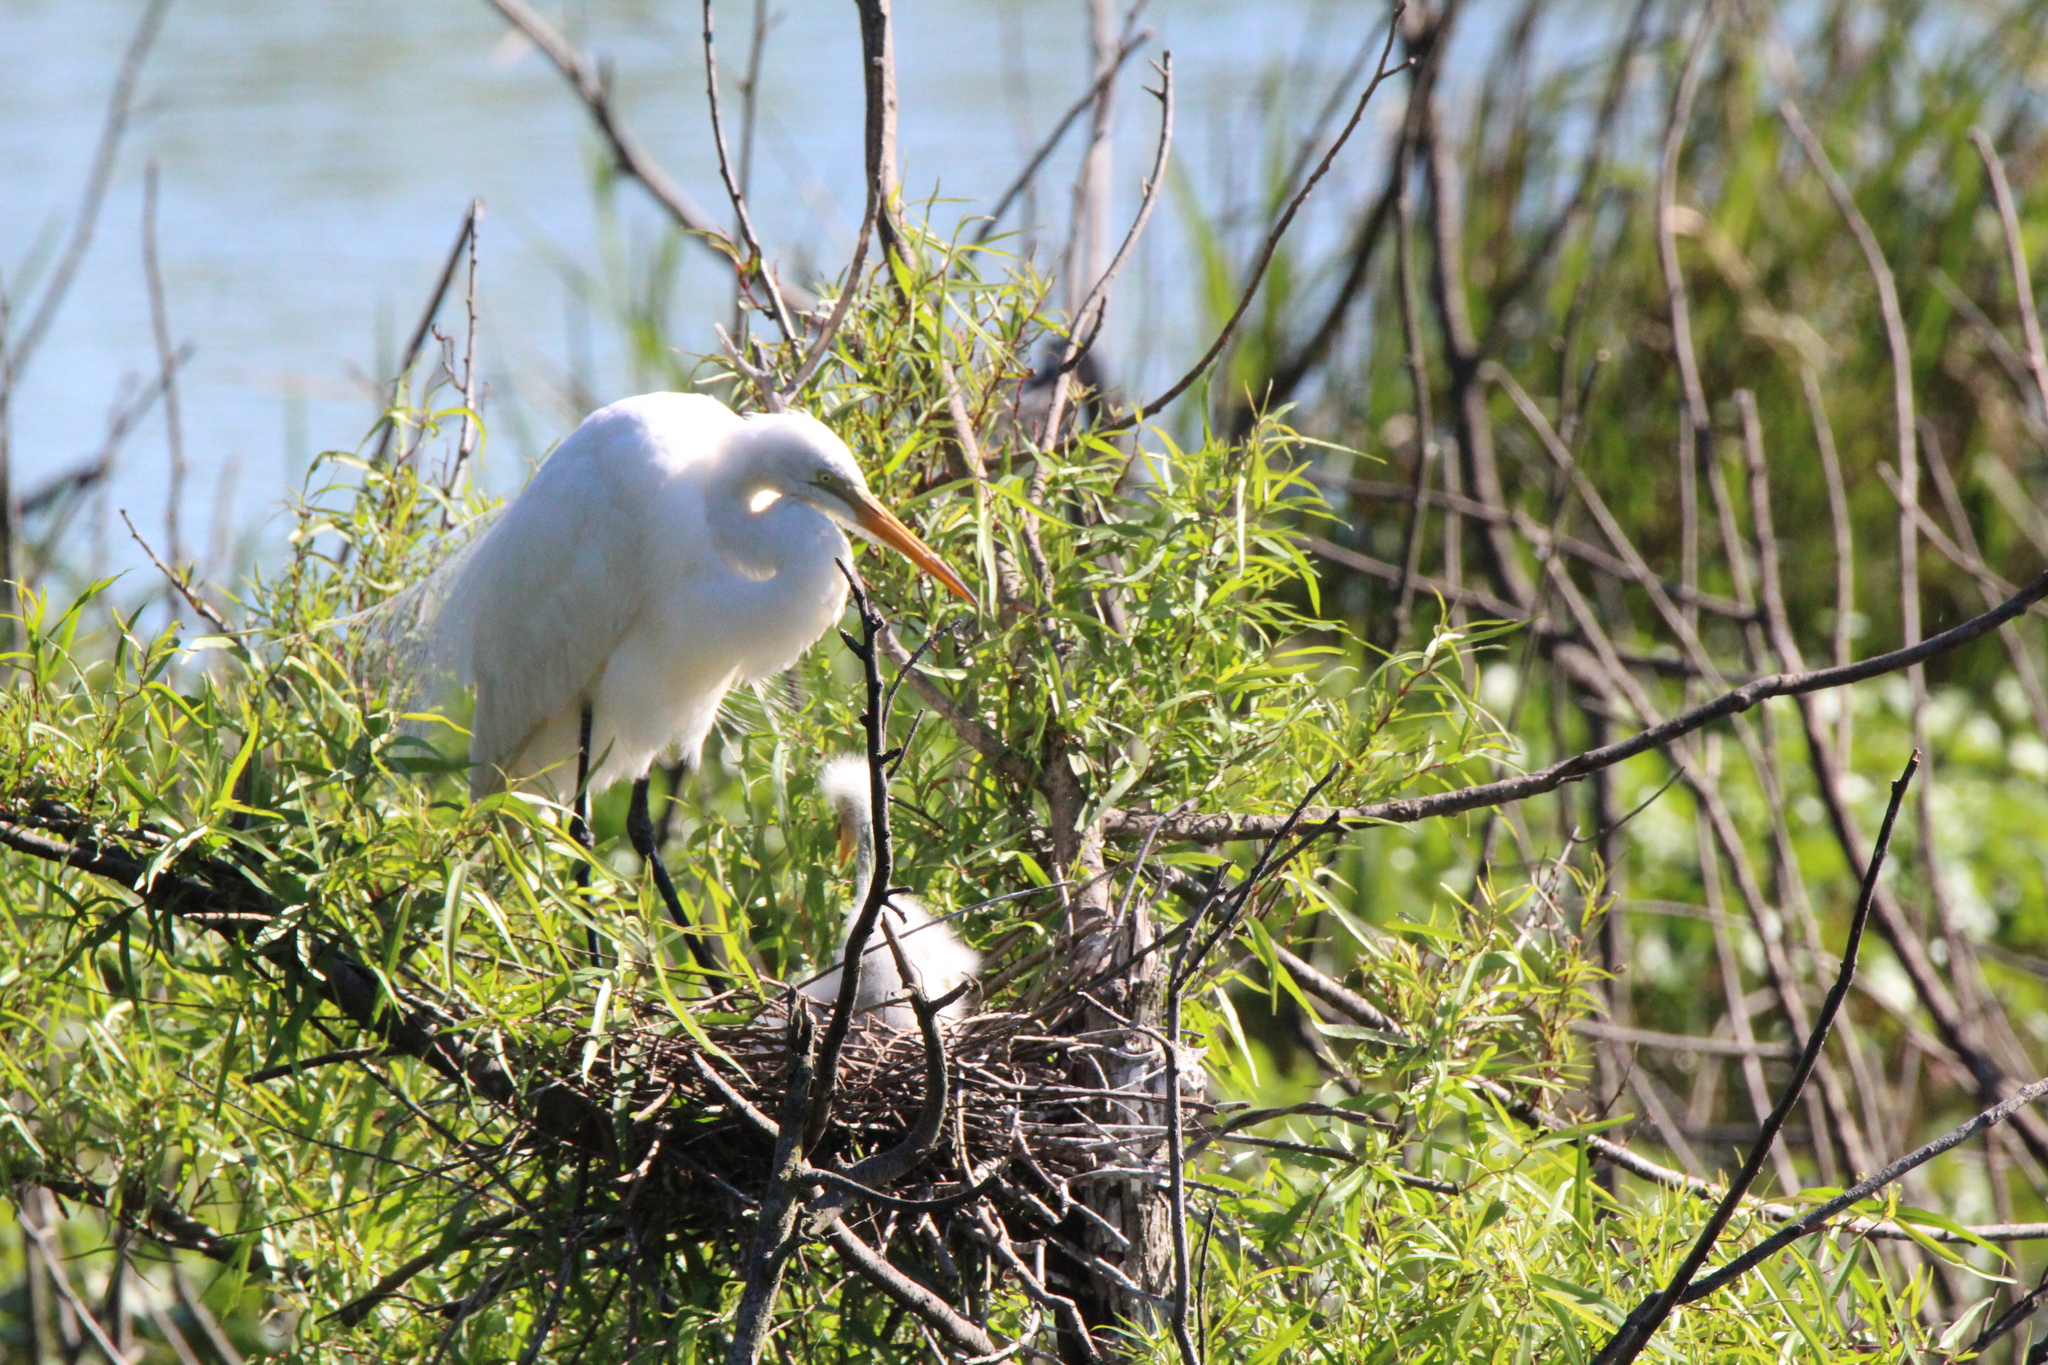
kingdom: Animalia
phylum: Chordata
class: Aves
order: Pelecaniformes
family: Ardeidae
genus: Ardea
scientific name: Ardea alba
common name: Great egret
